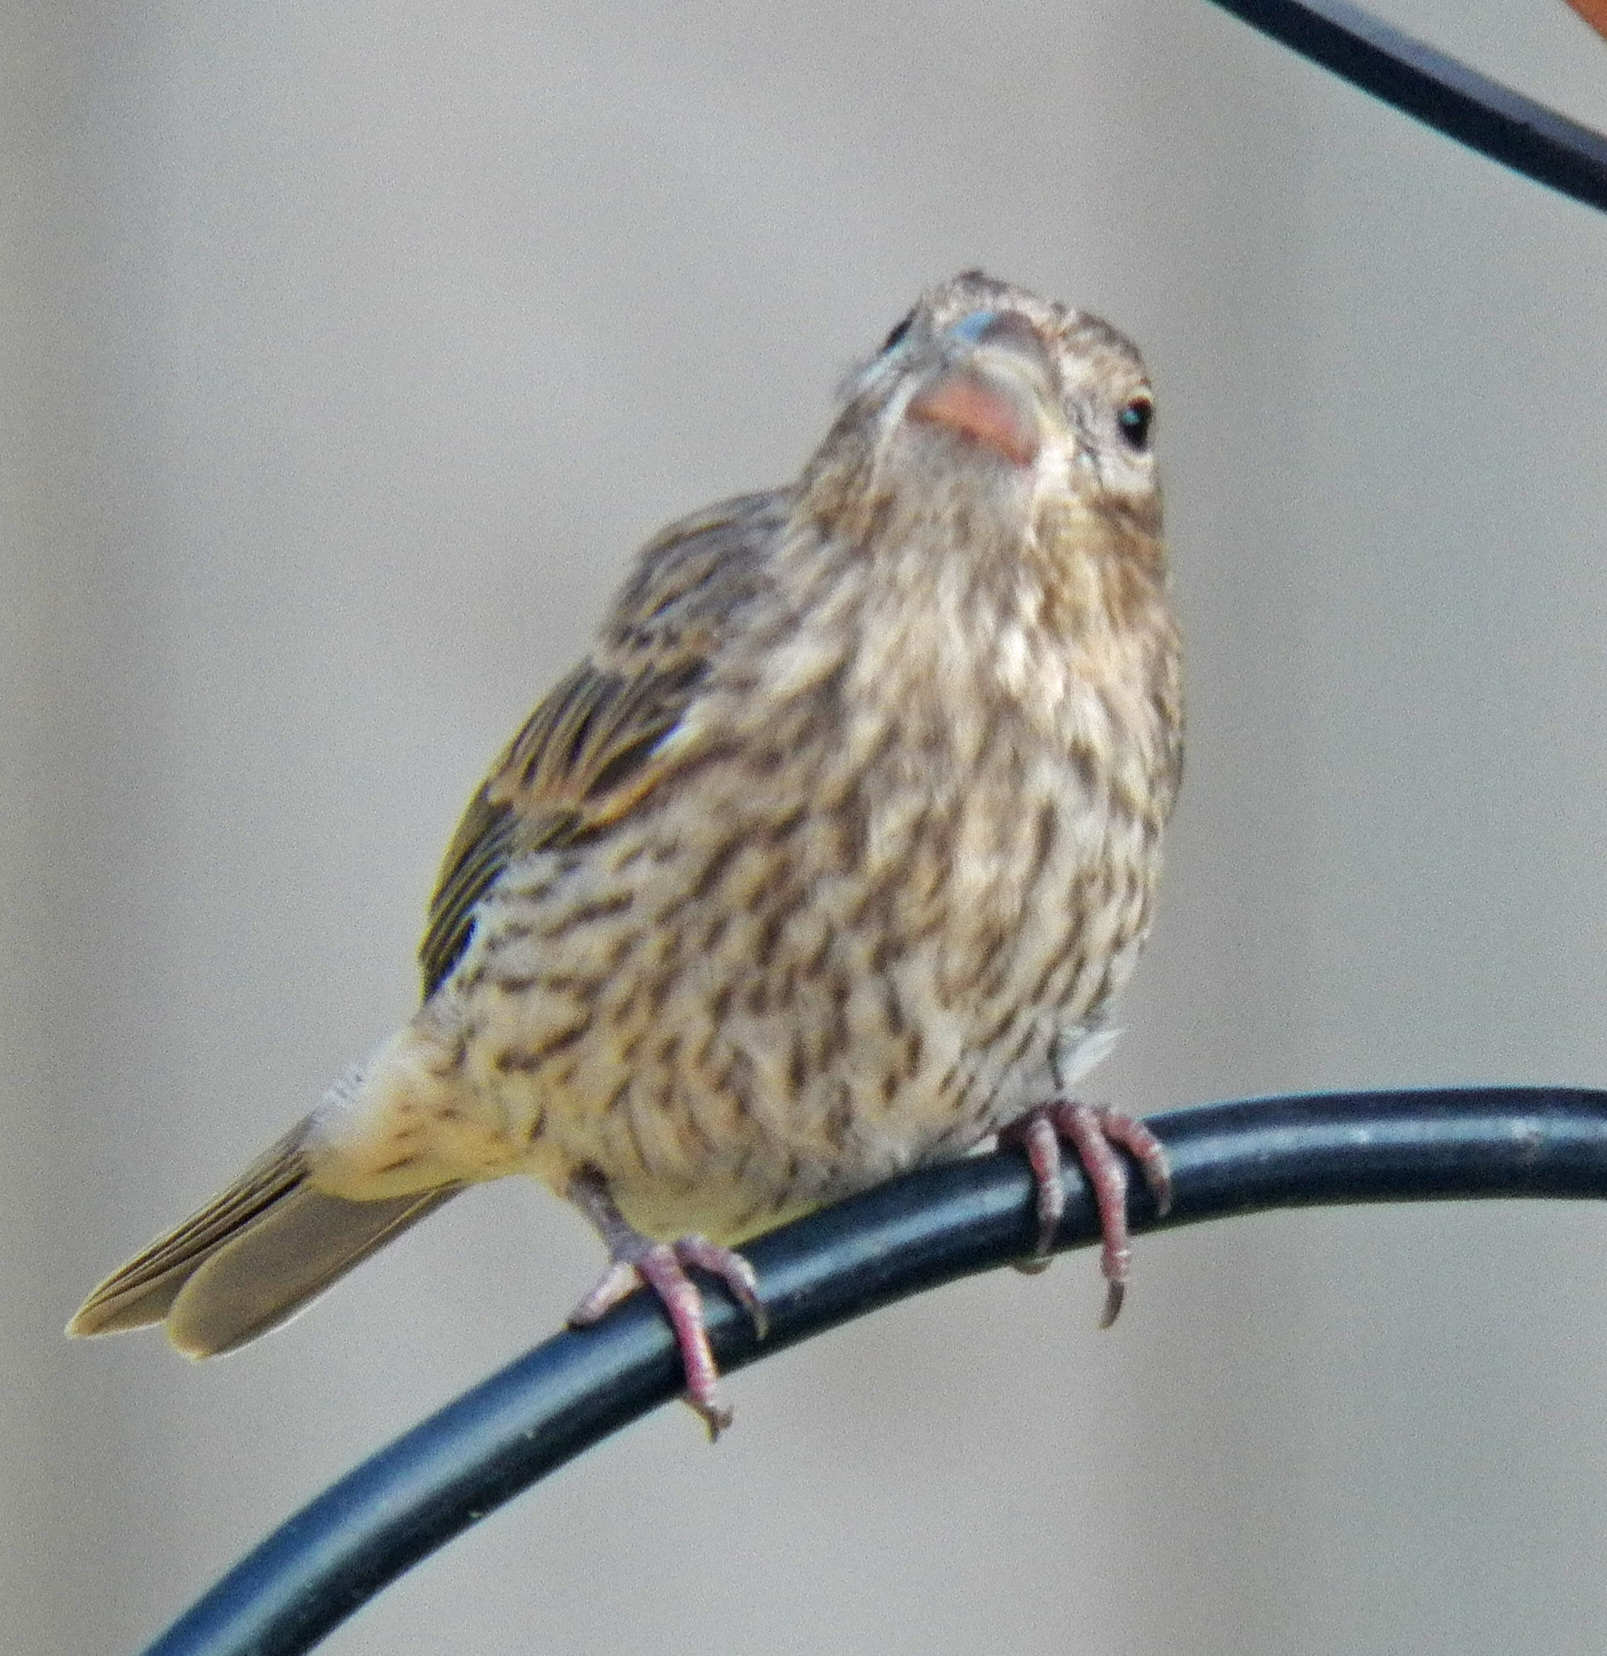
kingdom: Animalia
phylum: Chordata
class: Aves
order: Passeriformes
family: Fringillidae
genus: Haemorhous
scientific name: Haemorhous mexicanus
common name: House finch
